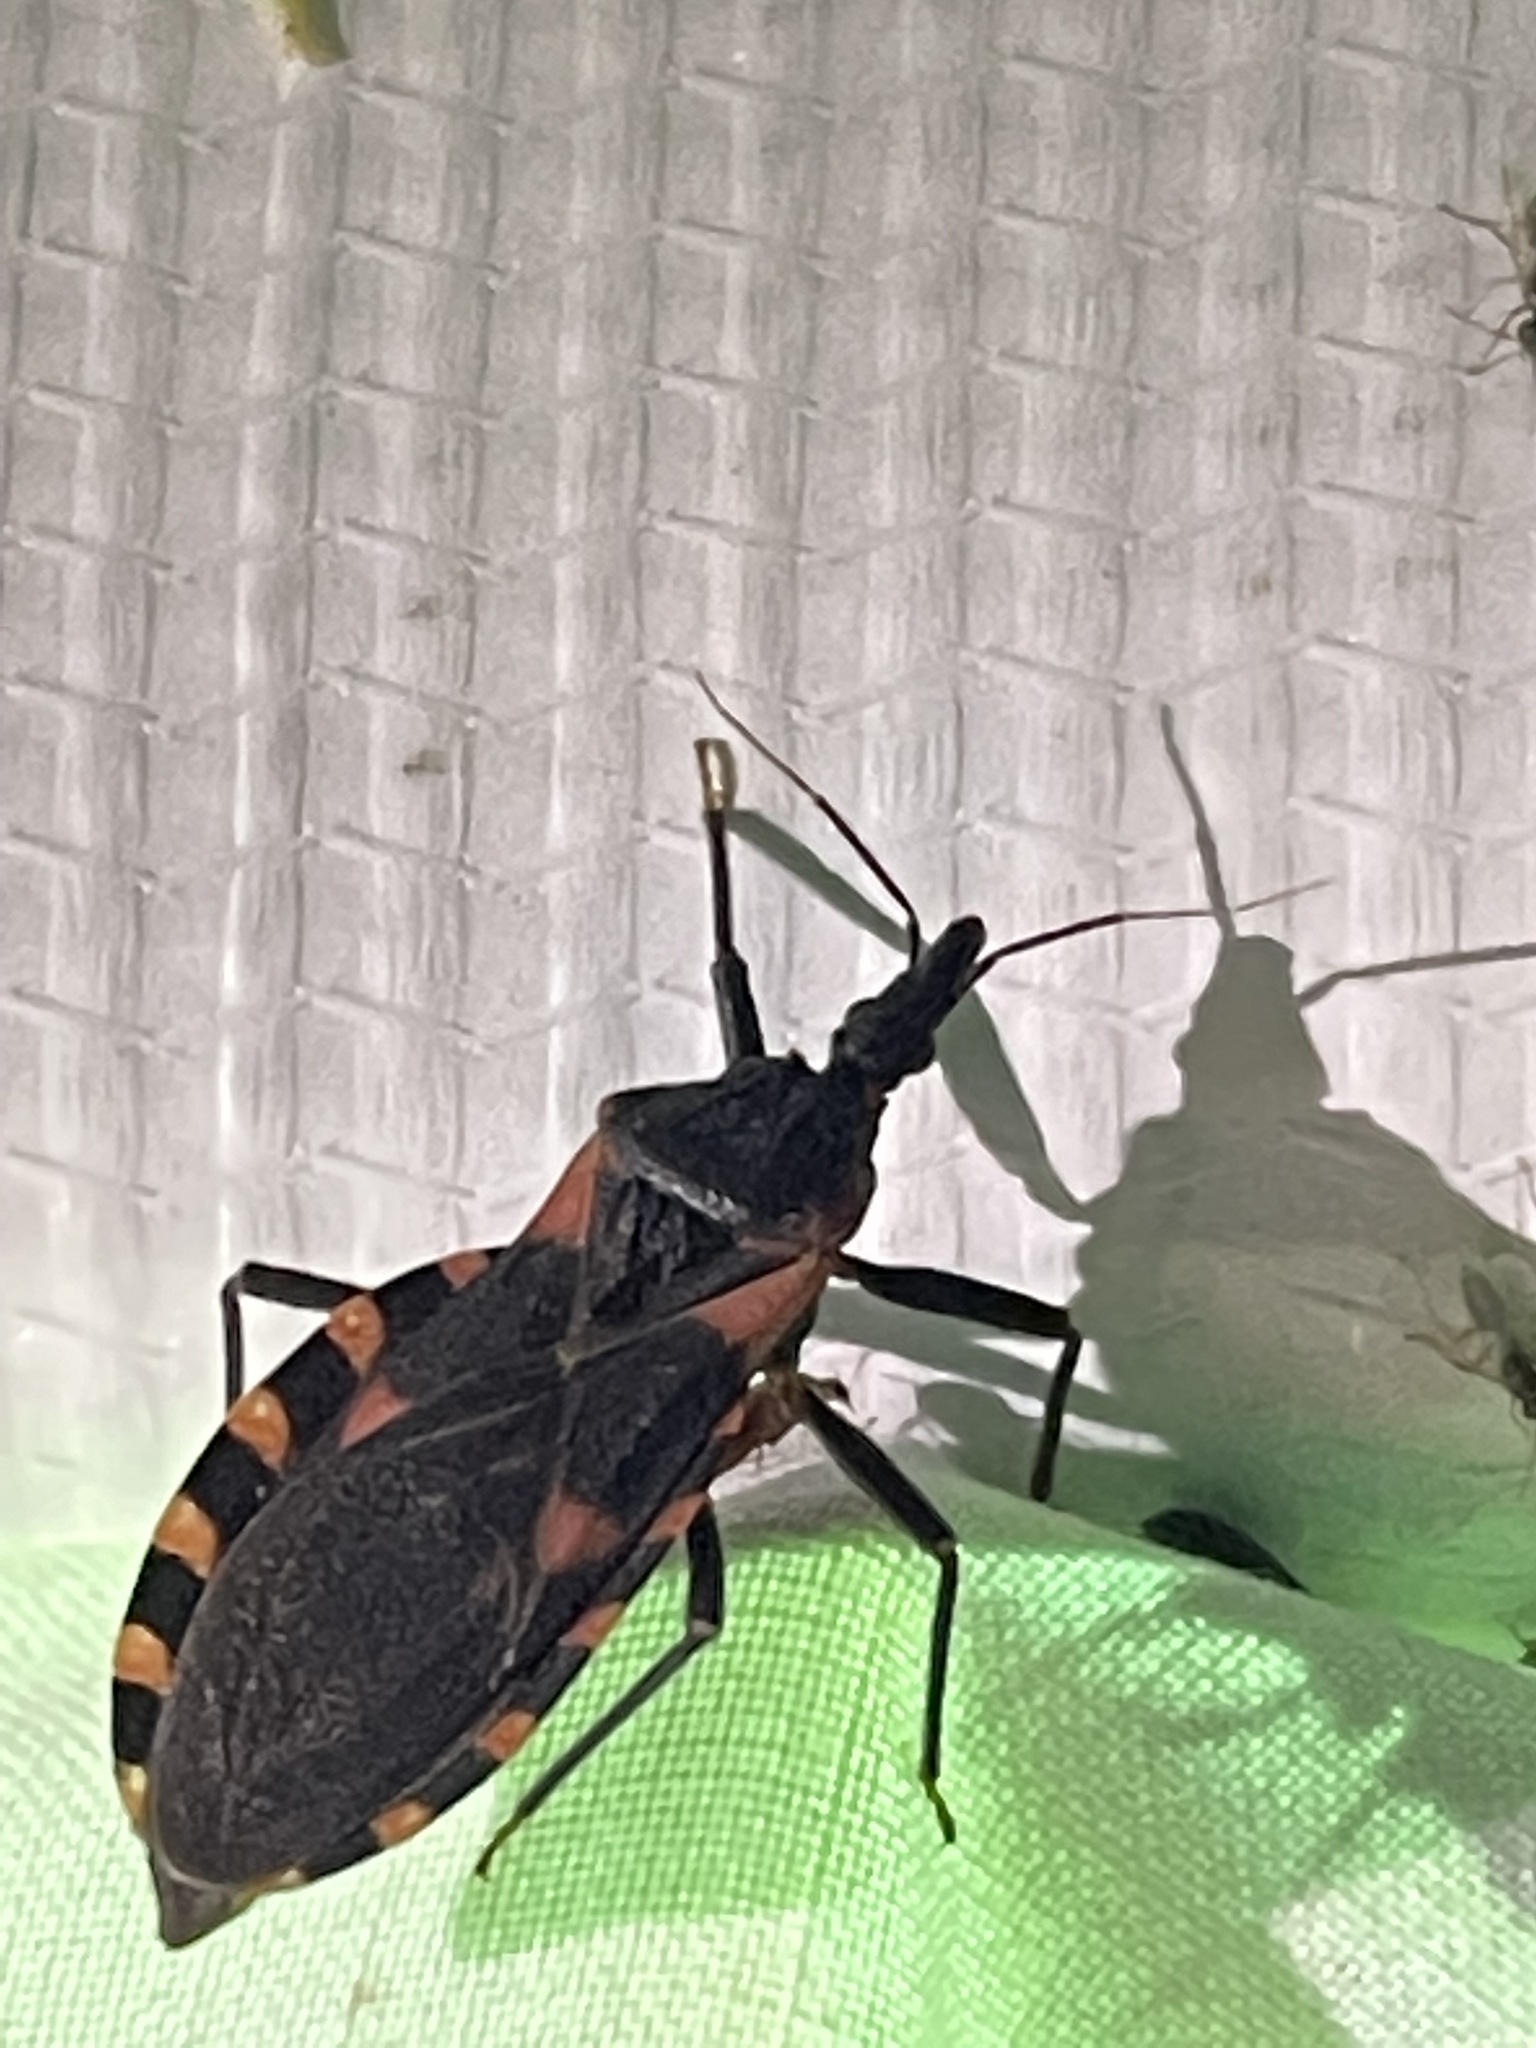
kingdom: Animalia
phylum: Arthropoda
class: Insecta
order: Hemiptera
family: Reduviidae
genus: Triatoma
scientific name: Triatoma sanguisuga
